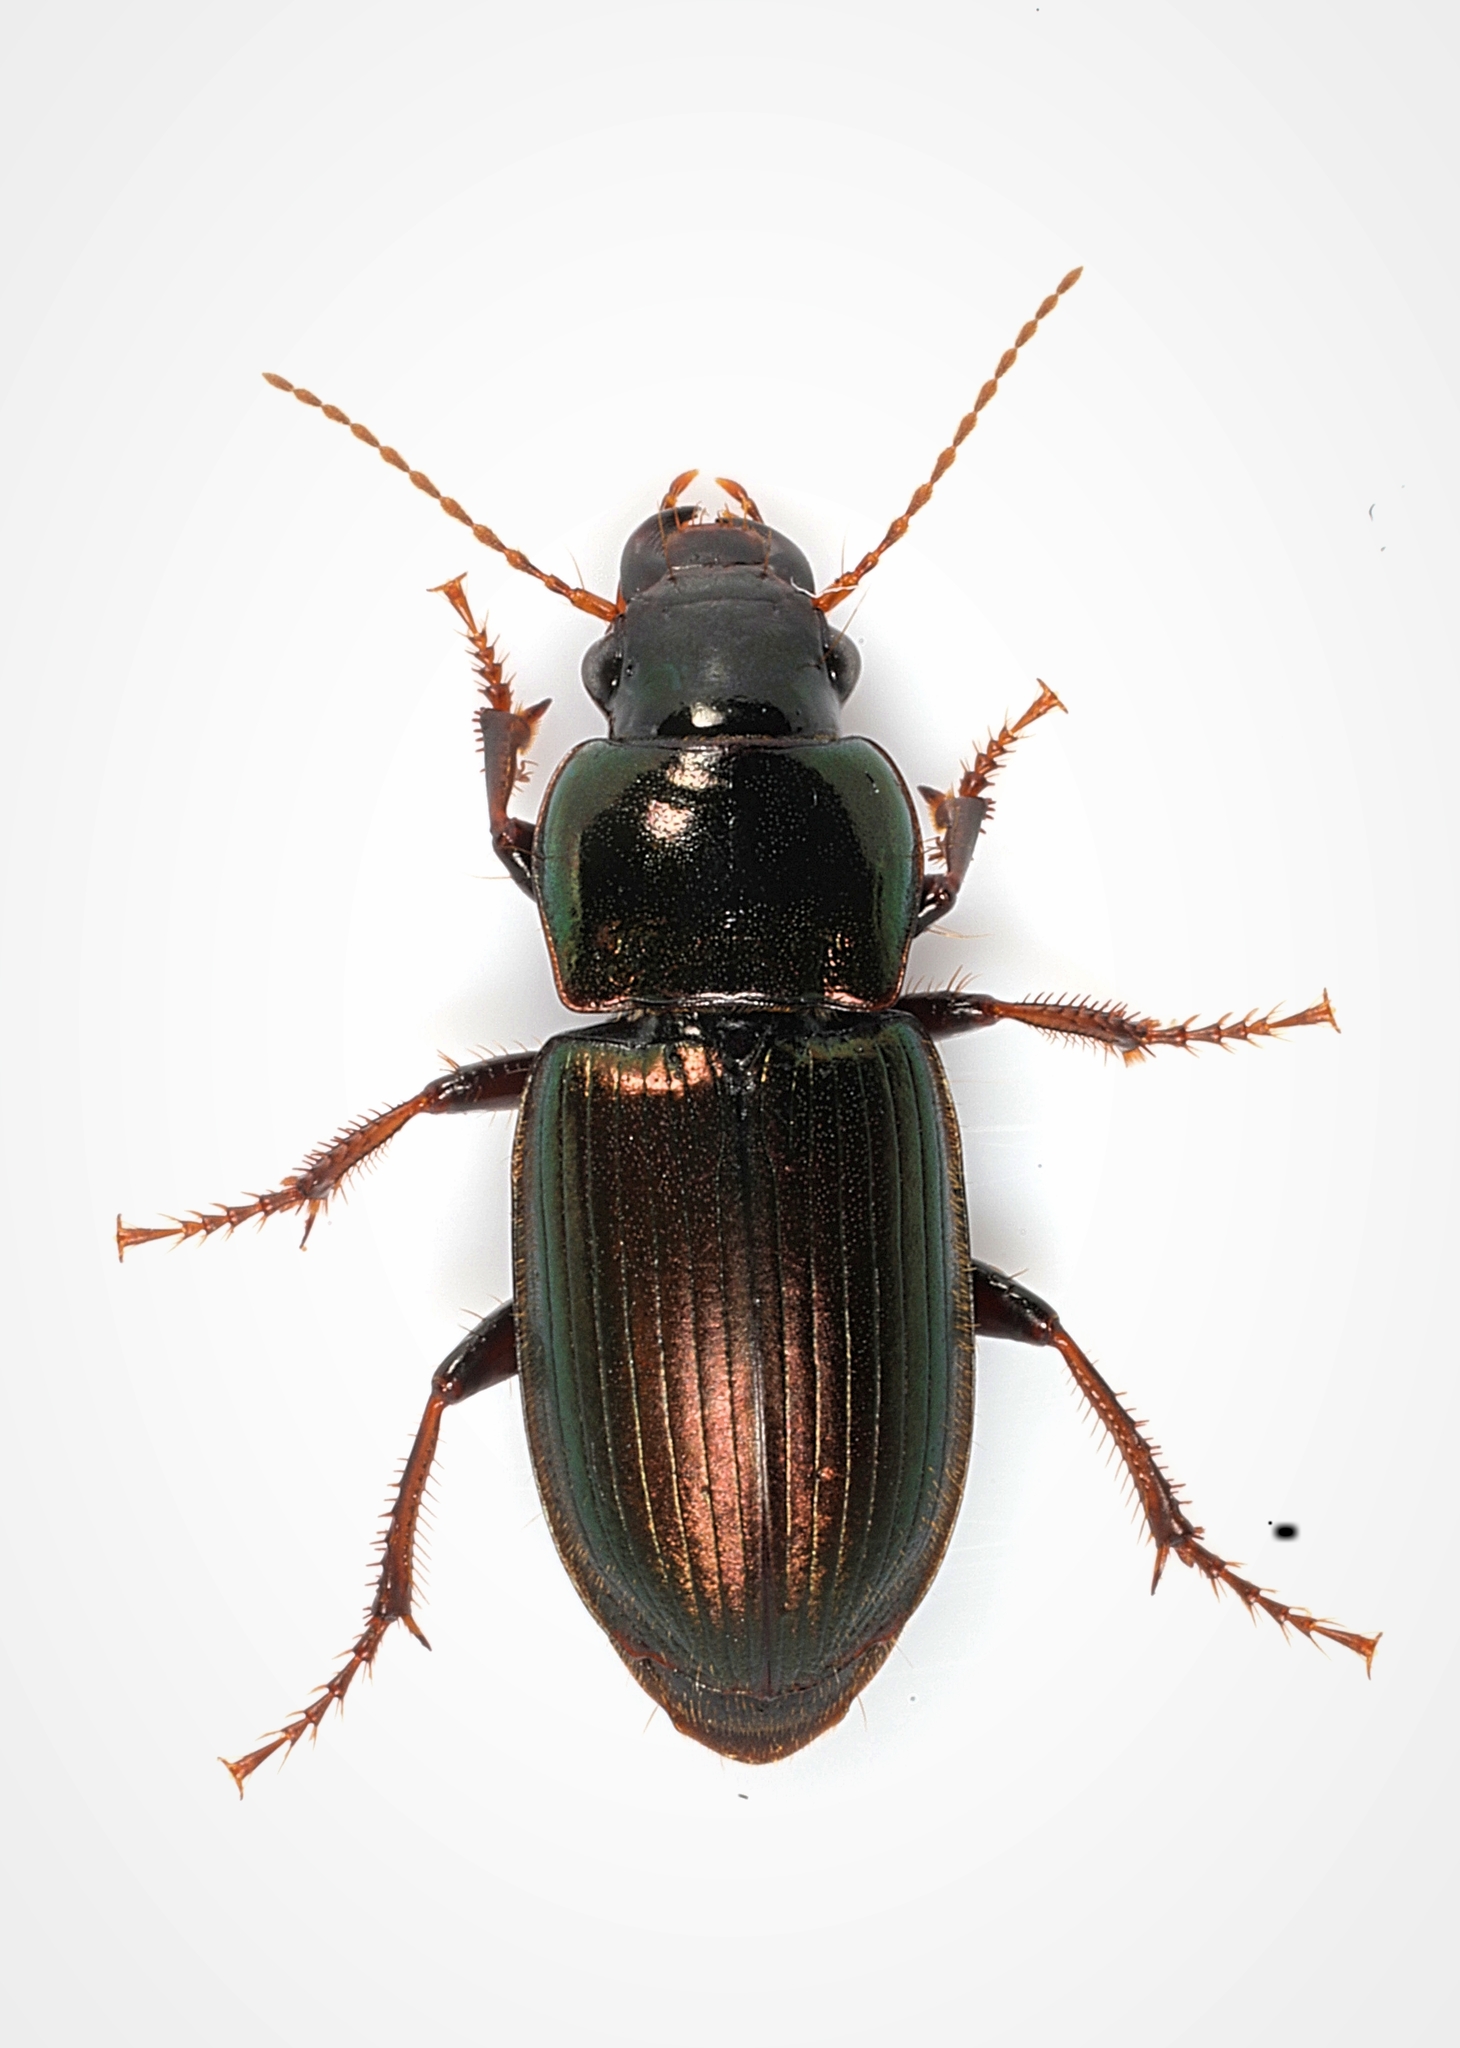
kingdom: Animalia
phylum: Arthropoda
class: Insecta
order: Coleoptera
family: Carabidae
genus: Harpalus
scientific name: Harpalus affinis
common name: Polychrome harp ground beetle
